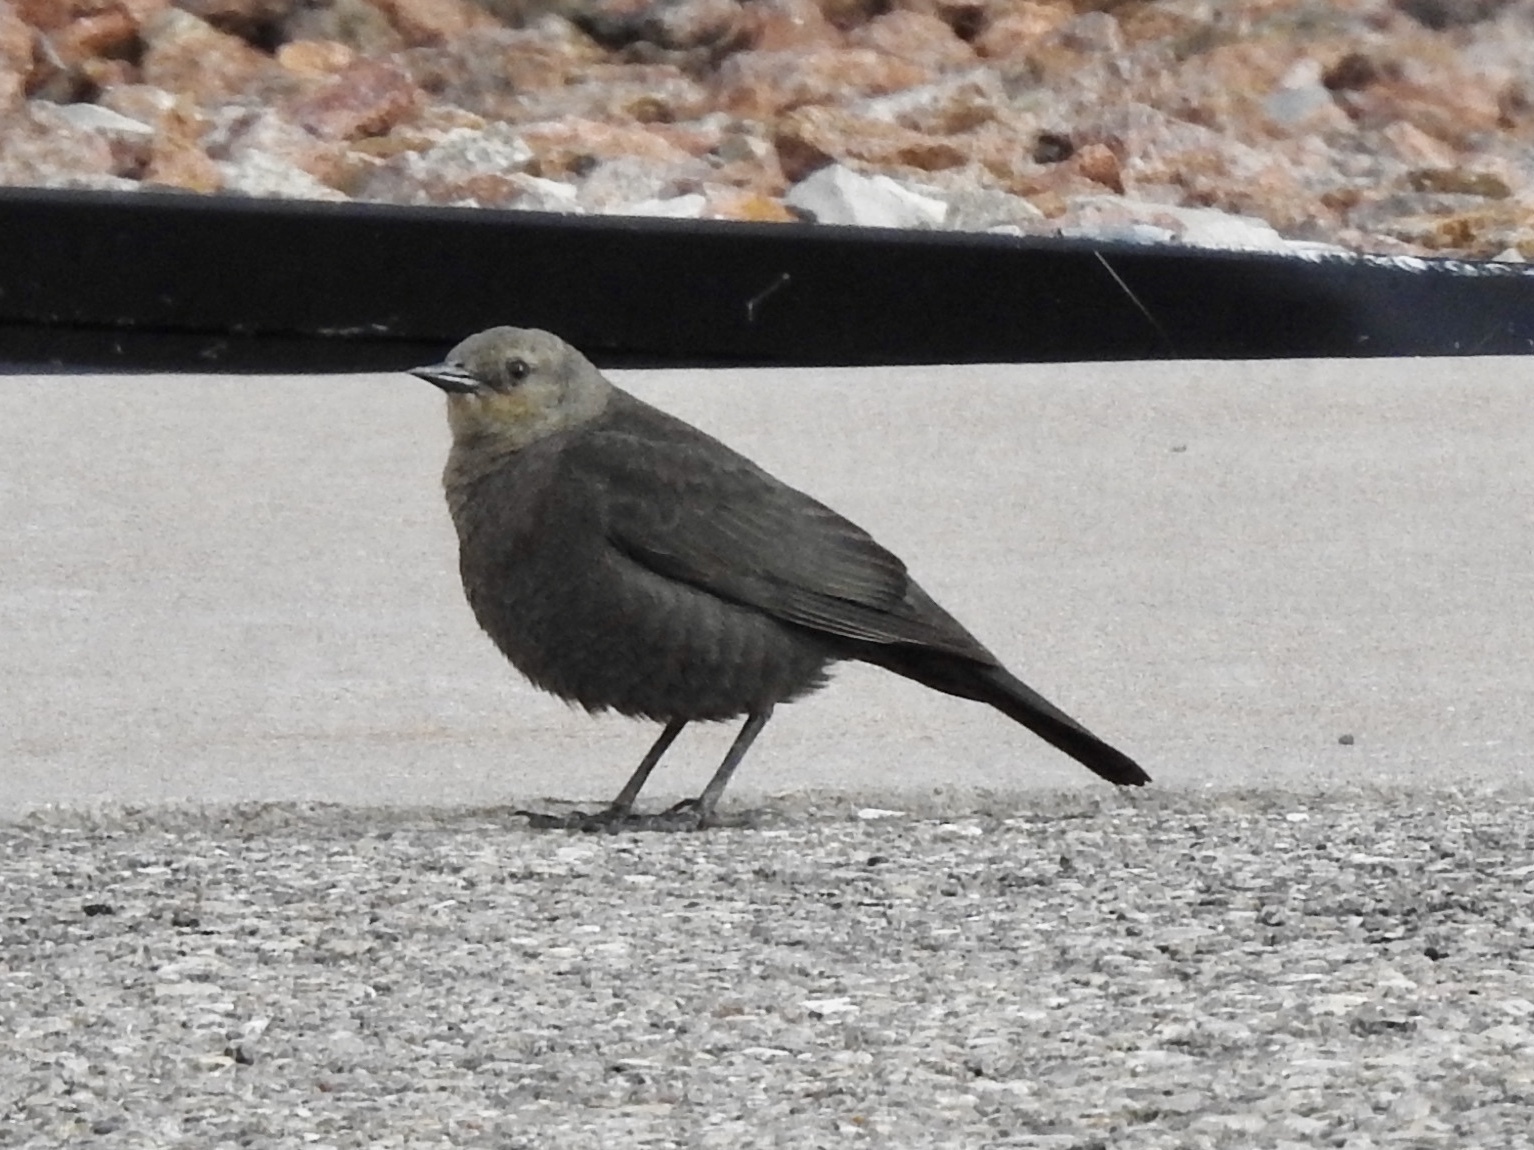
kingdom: Animalia
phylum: Chordata
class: Aves
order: Passeriformes
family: Icteridae
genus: Euphagus
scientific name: Euphagus cyanocephalus
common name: Brewer's blackbird
